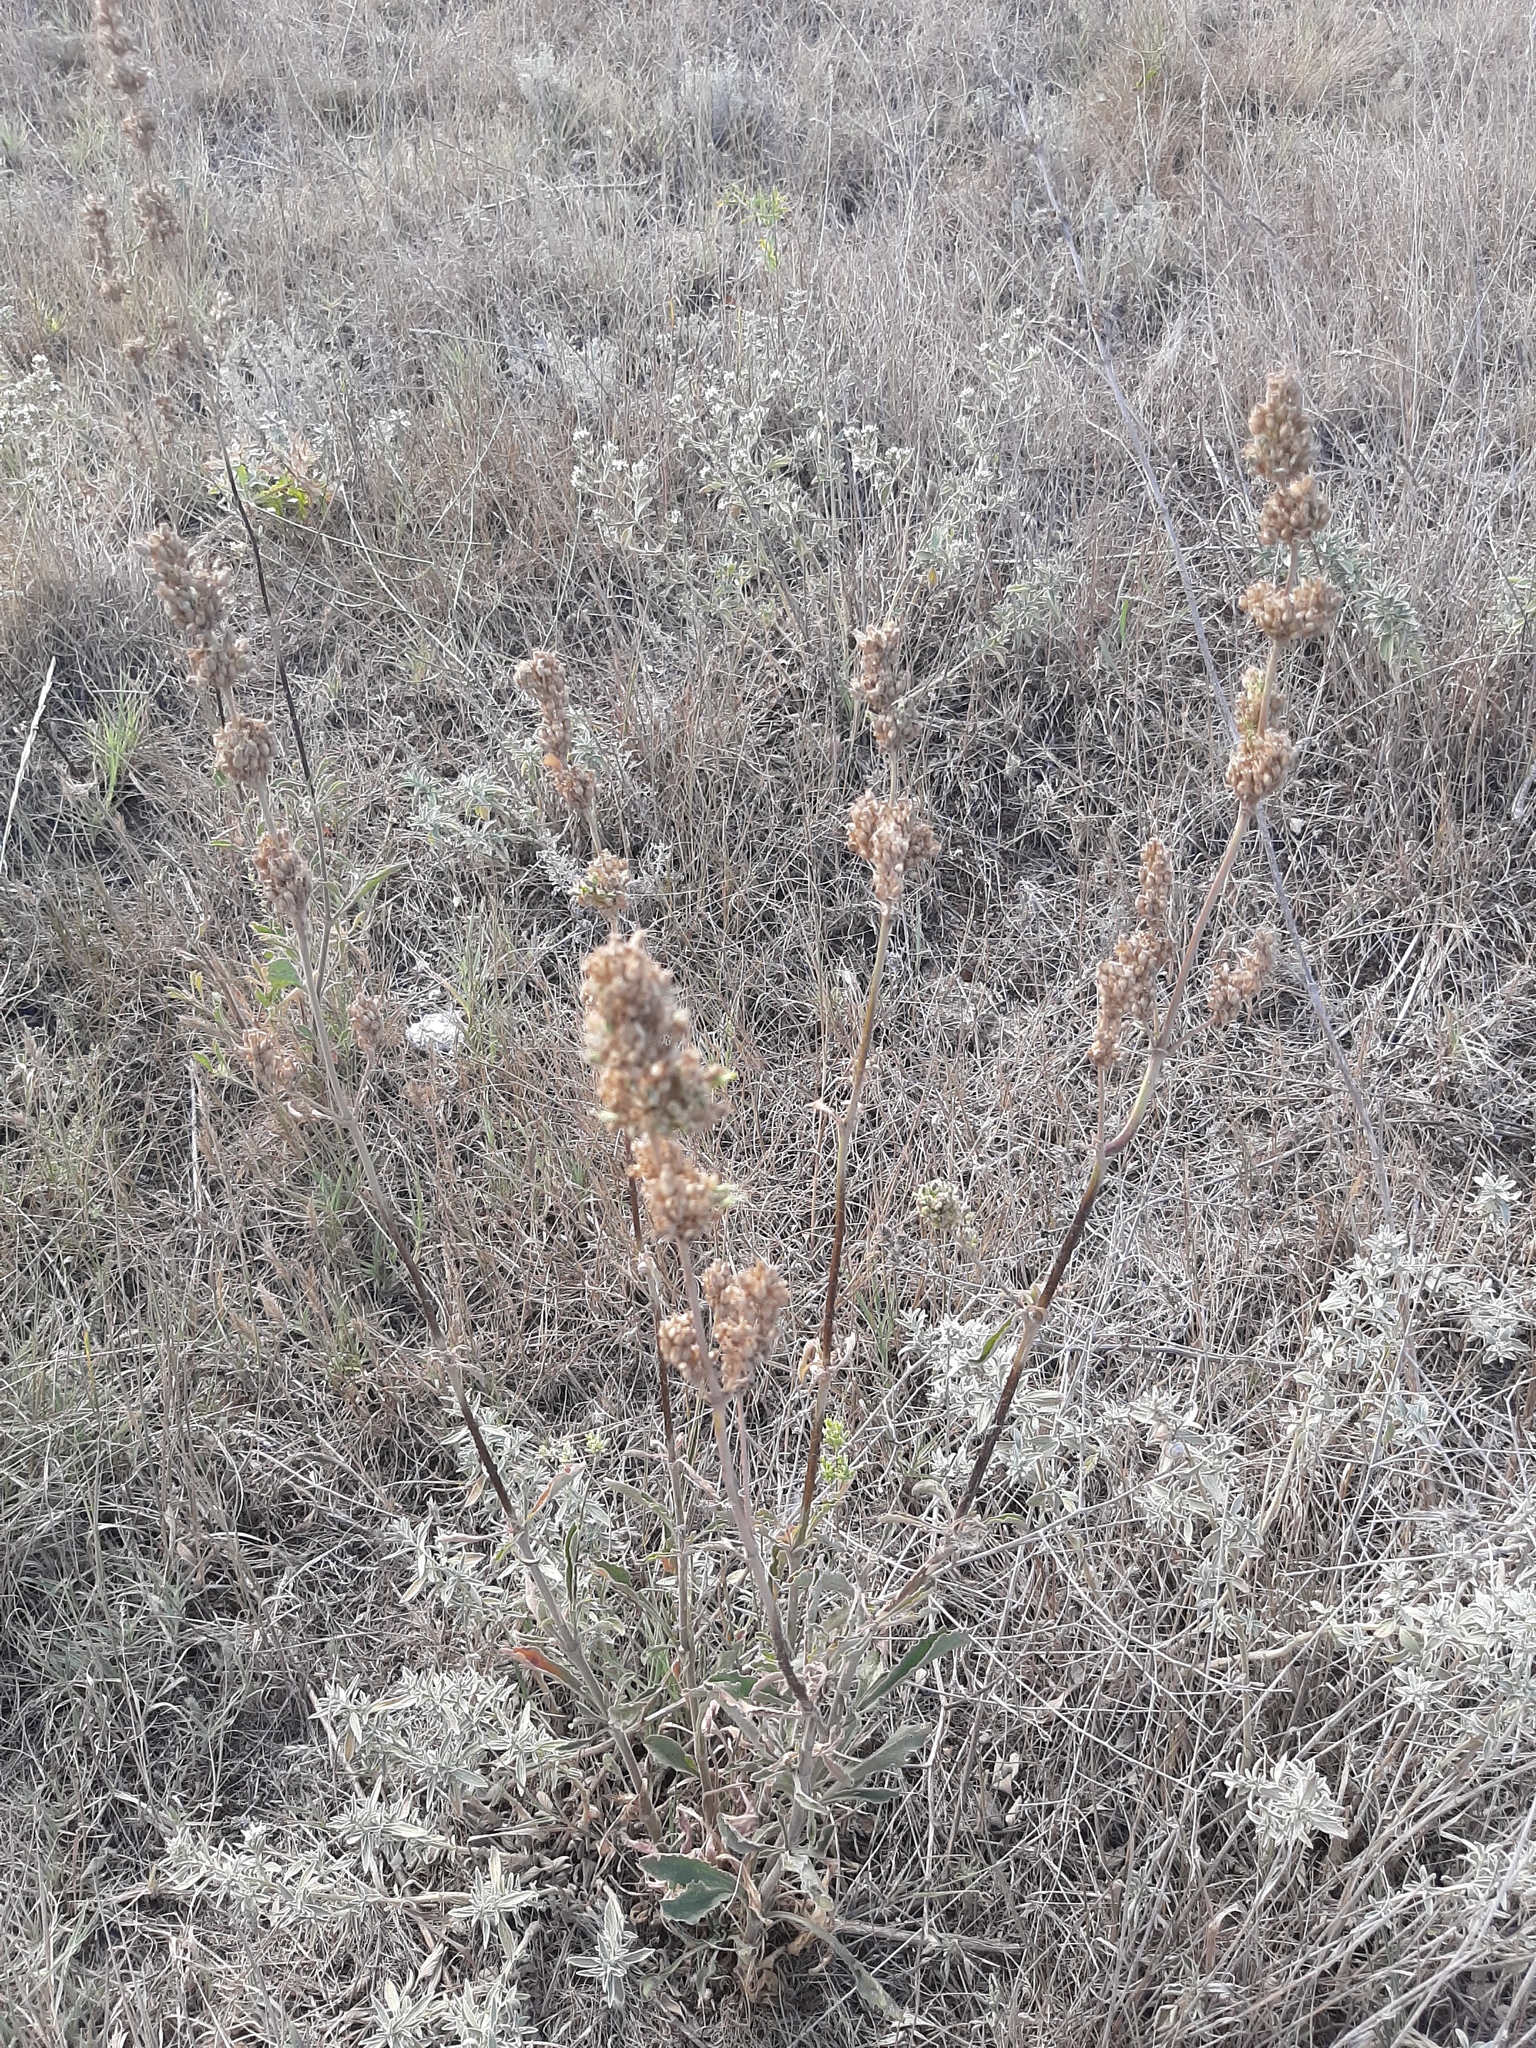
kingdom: Plantae
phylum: Tracheophyta
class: Magnoliopsida
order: Caryophyllales
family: Caryophyllaceae
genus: Silene
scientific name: Silene densiflora
